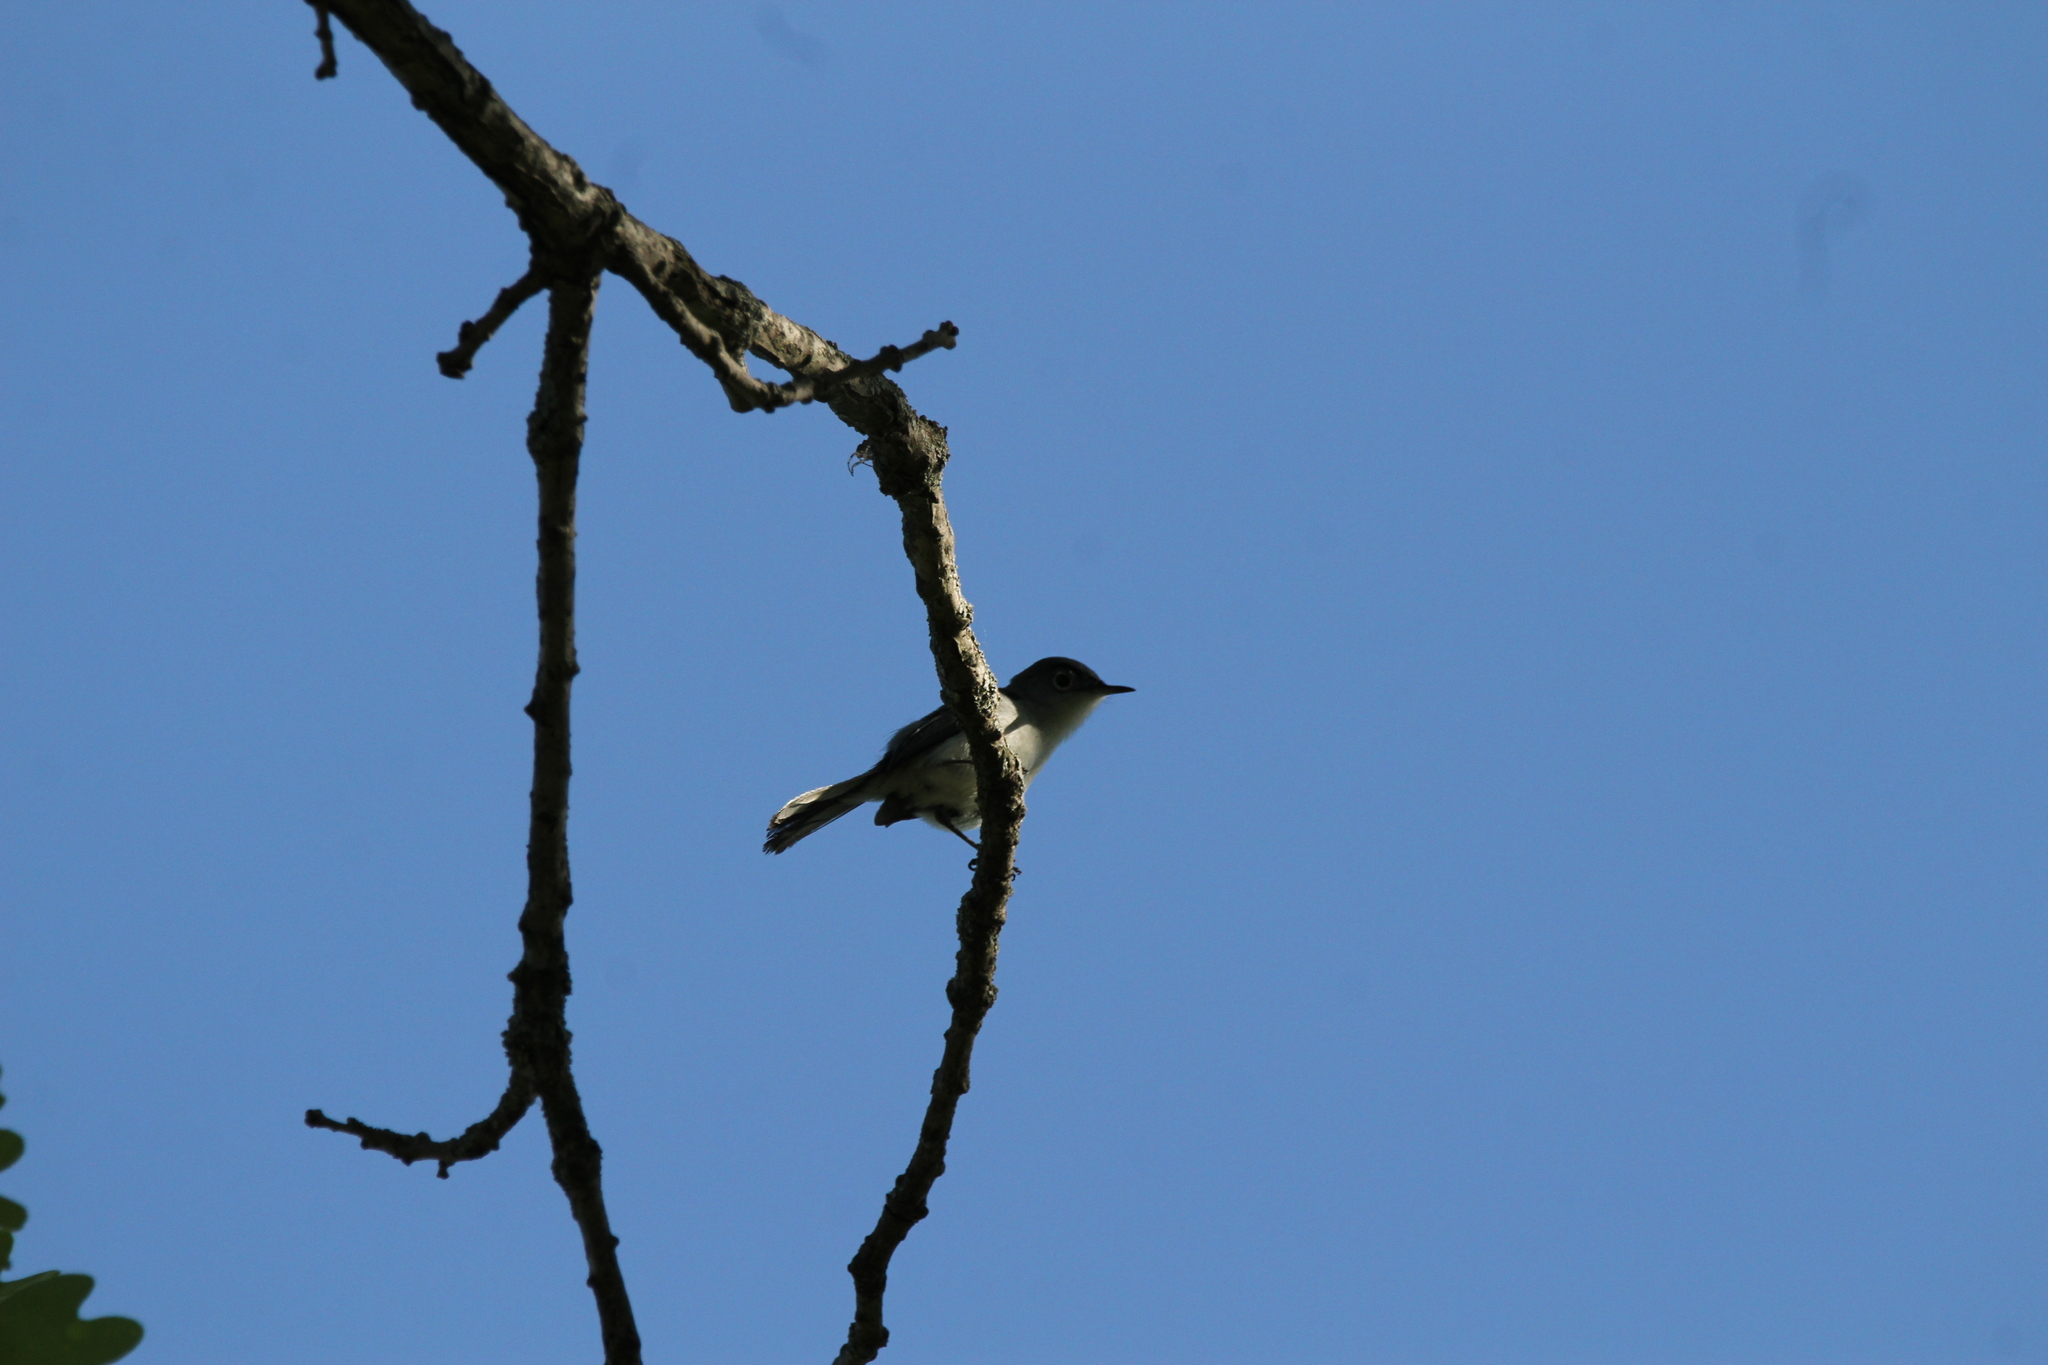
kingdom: Animalia
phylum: Chordata
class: Aves
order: Passeriformes
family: Polioptilidae
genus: Polioptila
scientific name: Polioptila caerulea
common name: Blue-gray gnatcatcher
